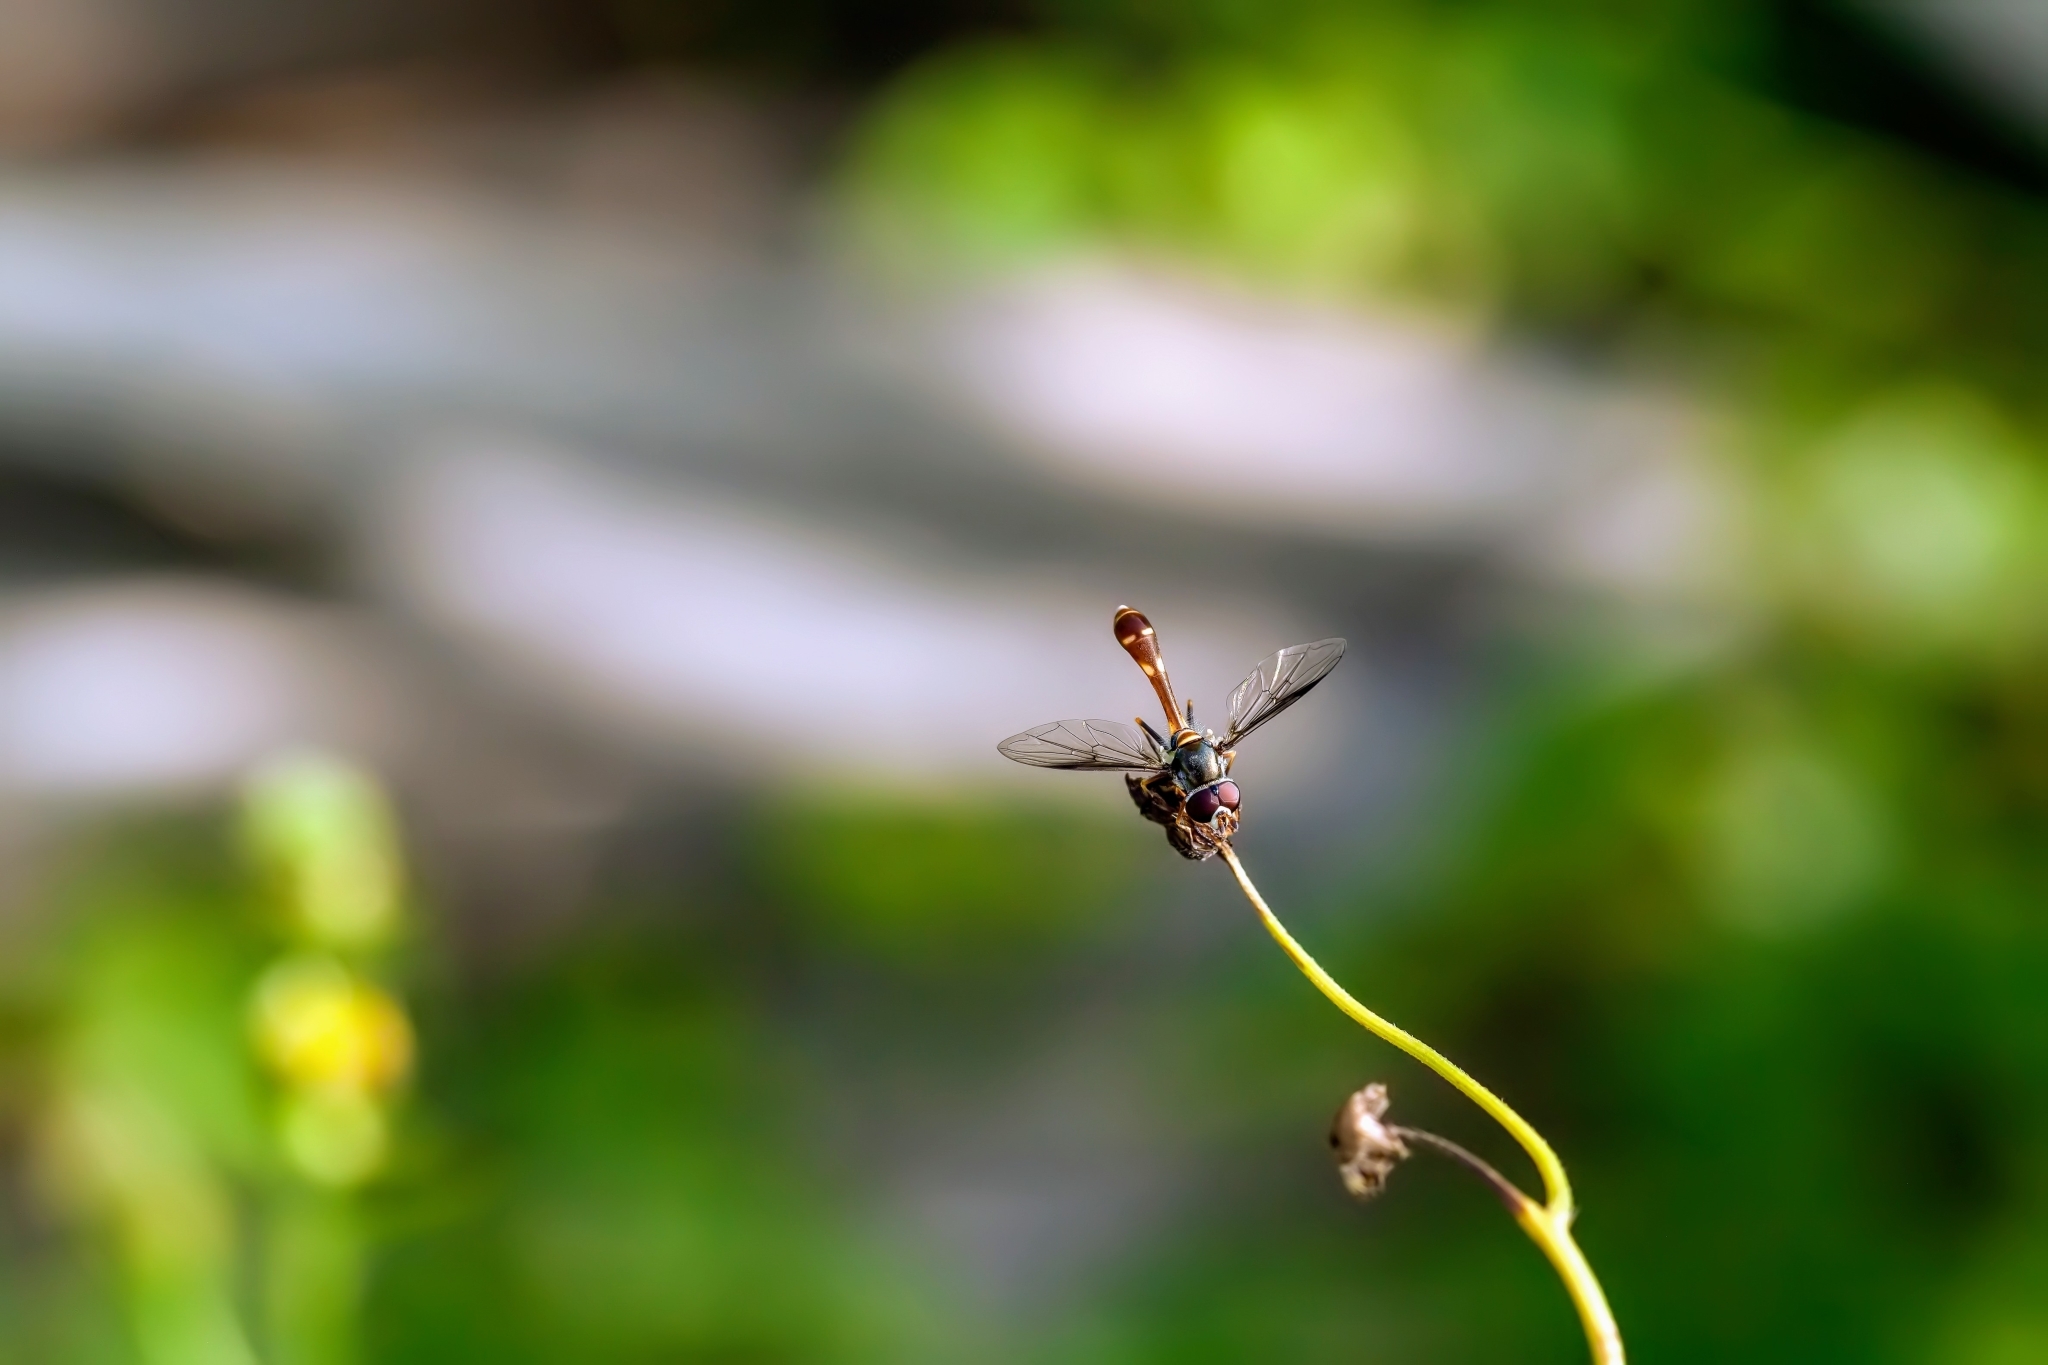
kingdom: Animalia
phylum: Arthropoda
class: Insecta
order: Diptera
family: Syrphidae
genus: Dioprosopa
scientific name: Dioprosopa clavatus
